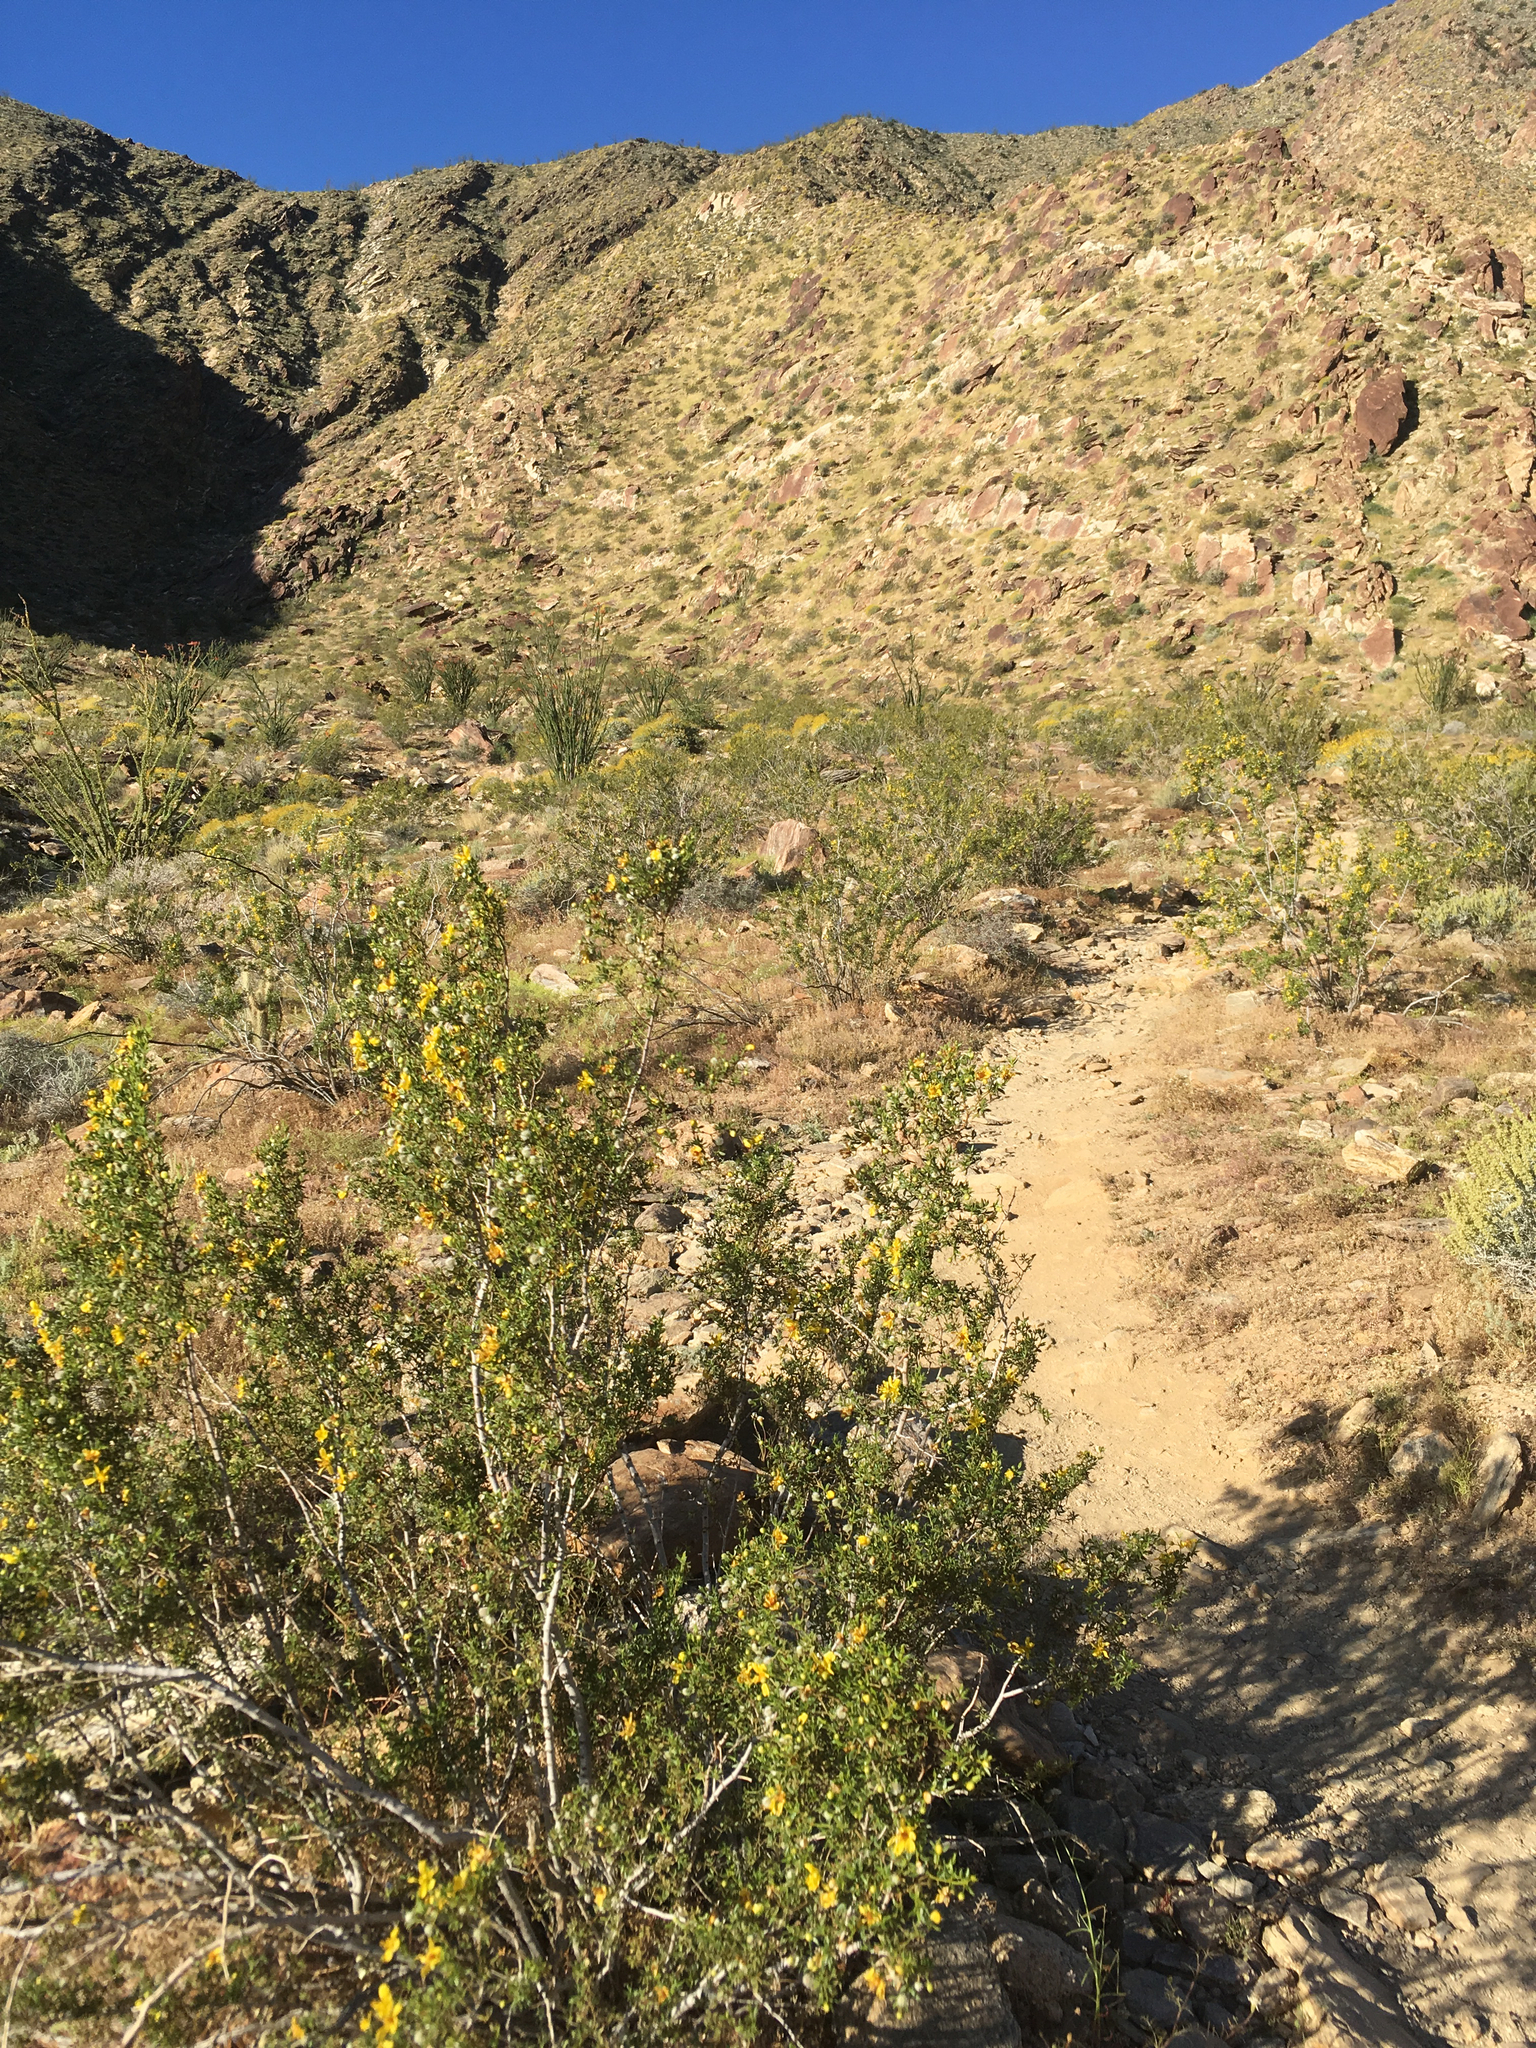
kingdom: Plantae
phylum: Tracheophyta
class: Magnoliopsida
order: Zygophyllales
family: Zygophyllaceae
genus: Larrea
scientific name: Larrea tridentata
